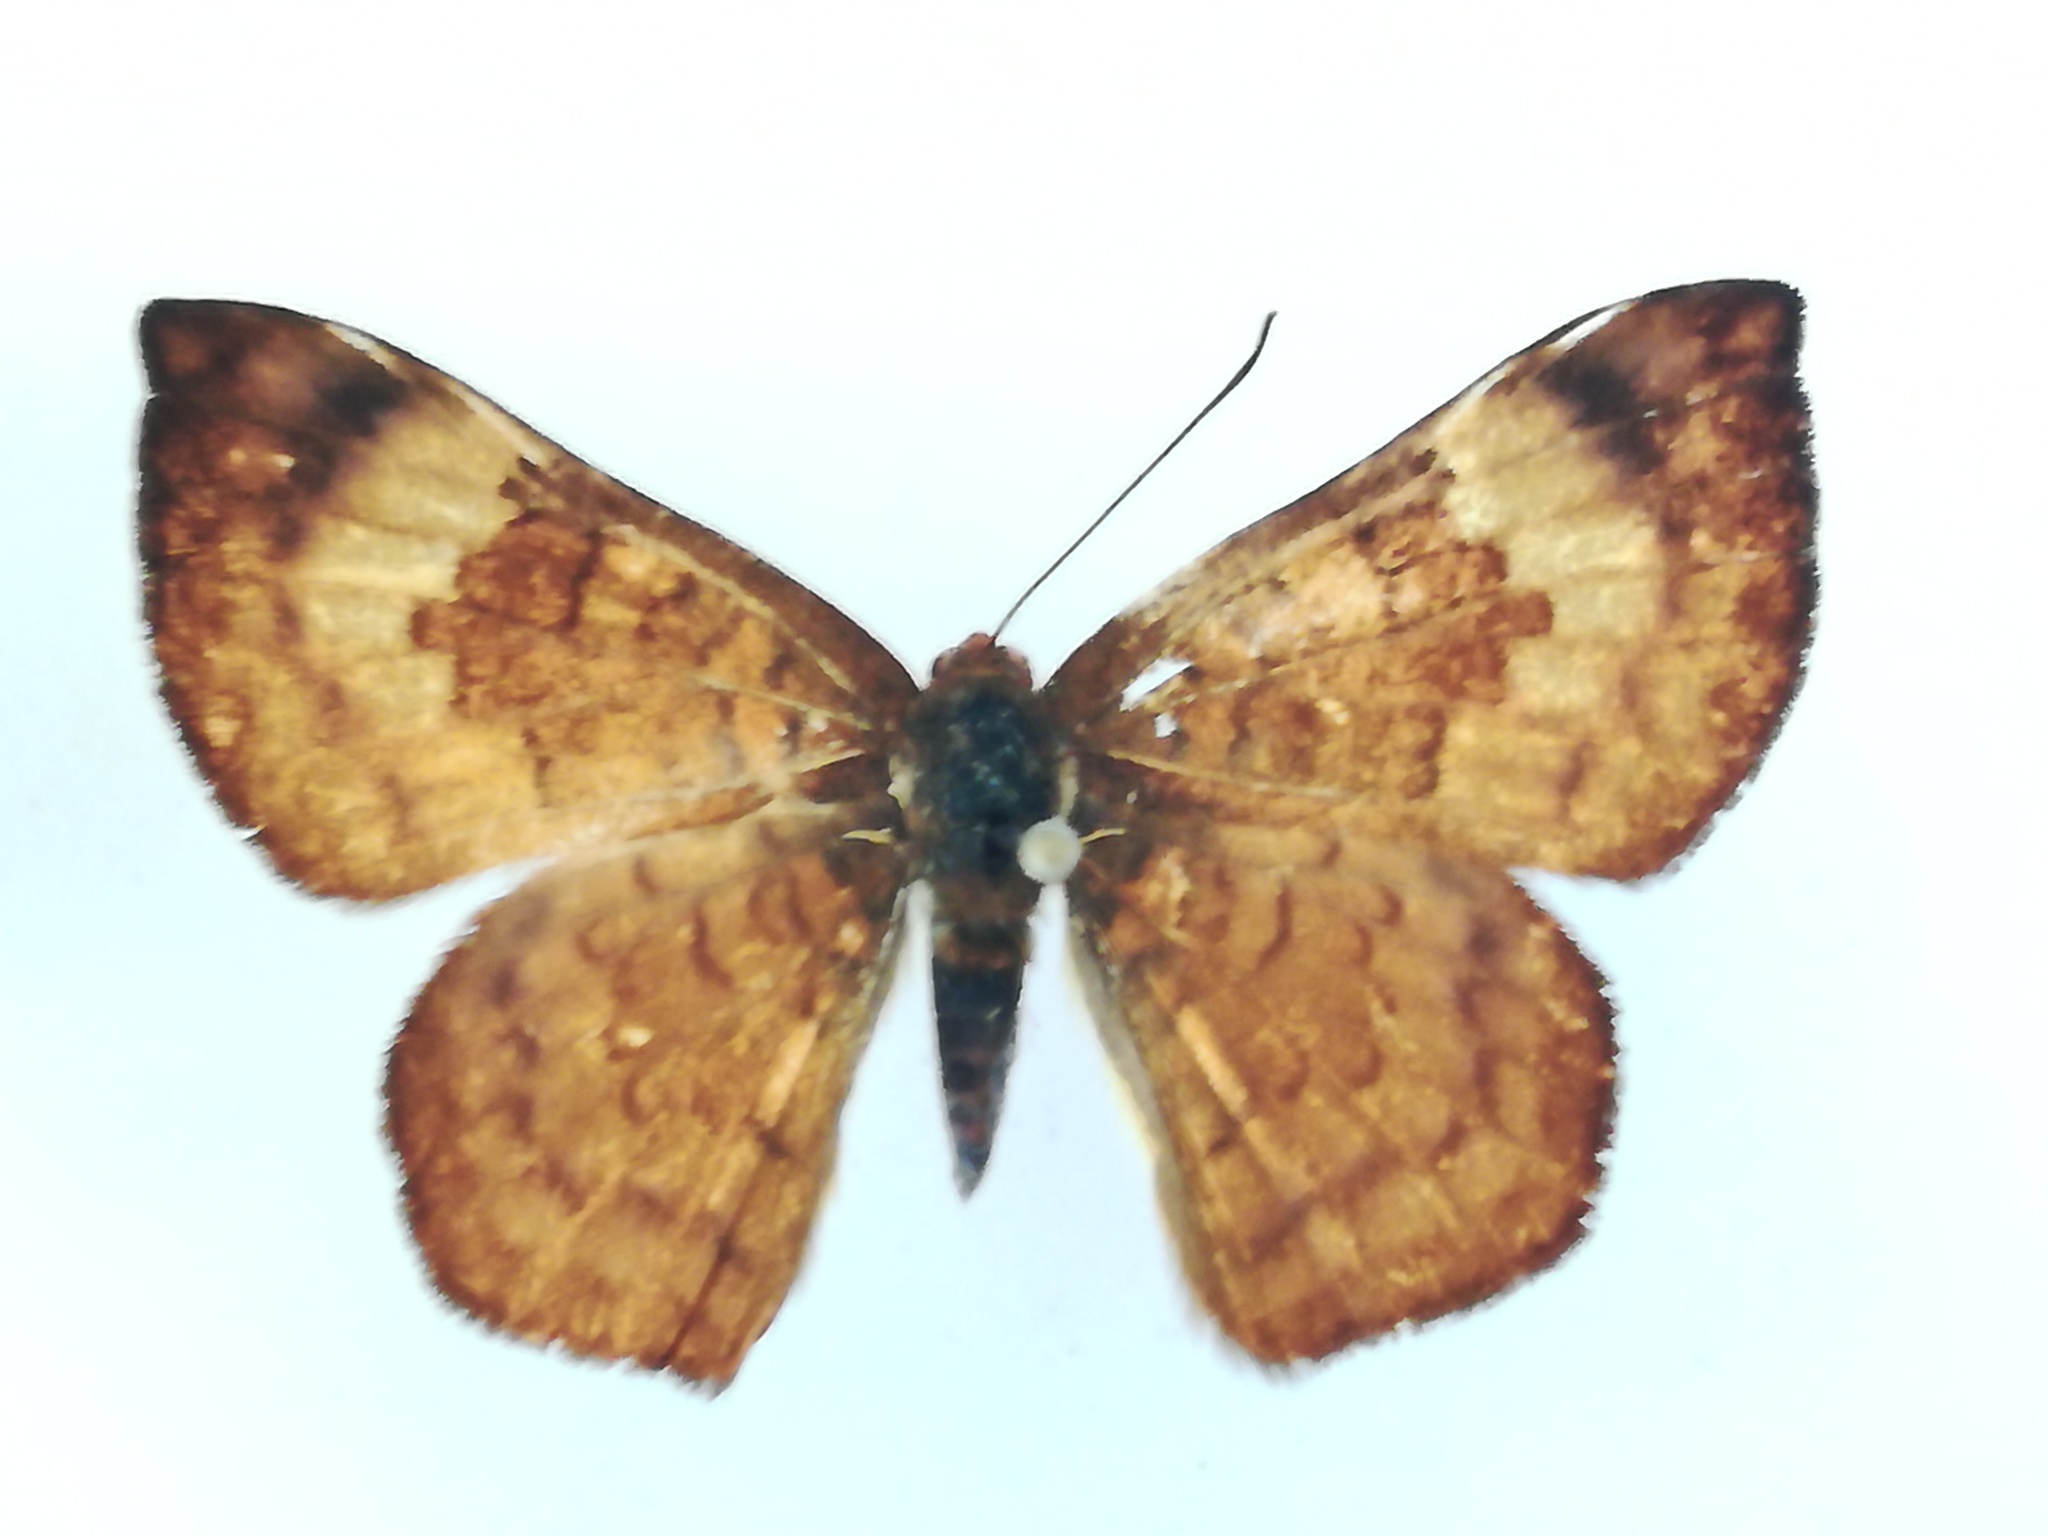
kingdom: Animalia
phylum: Arthropoda
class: Insecta
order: Lepidoptera
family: Lycaenidae
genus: Emesis
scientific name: Emesis tenedia
